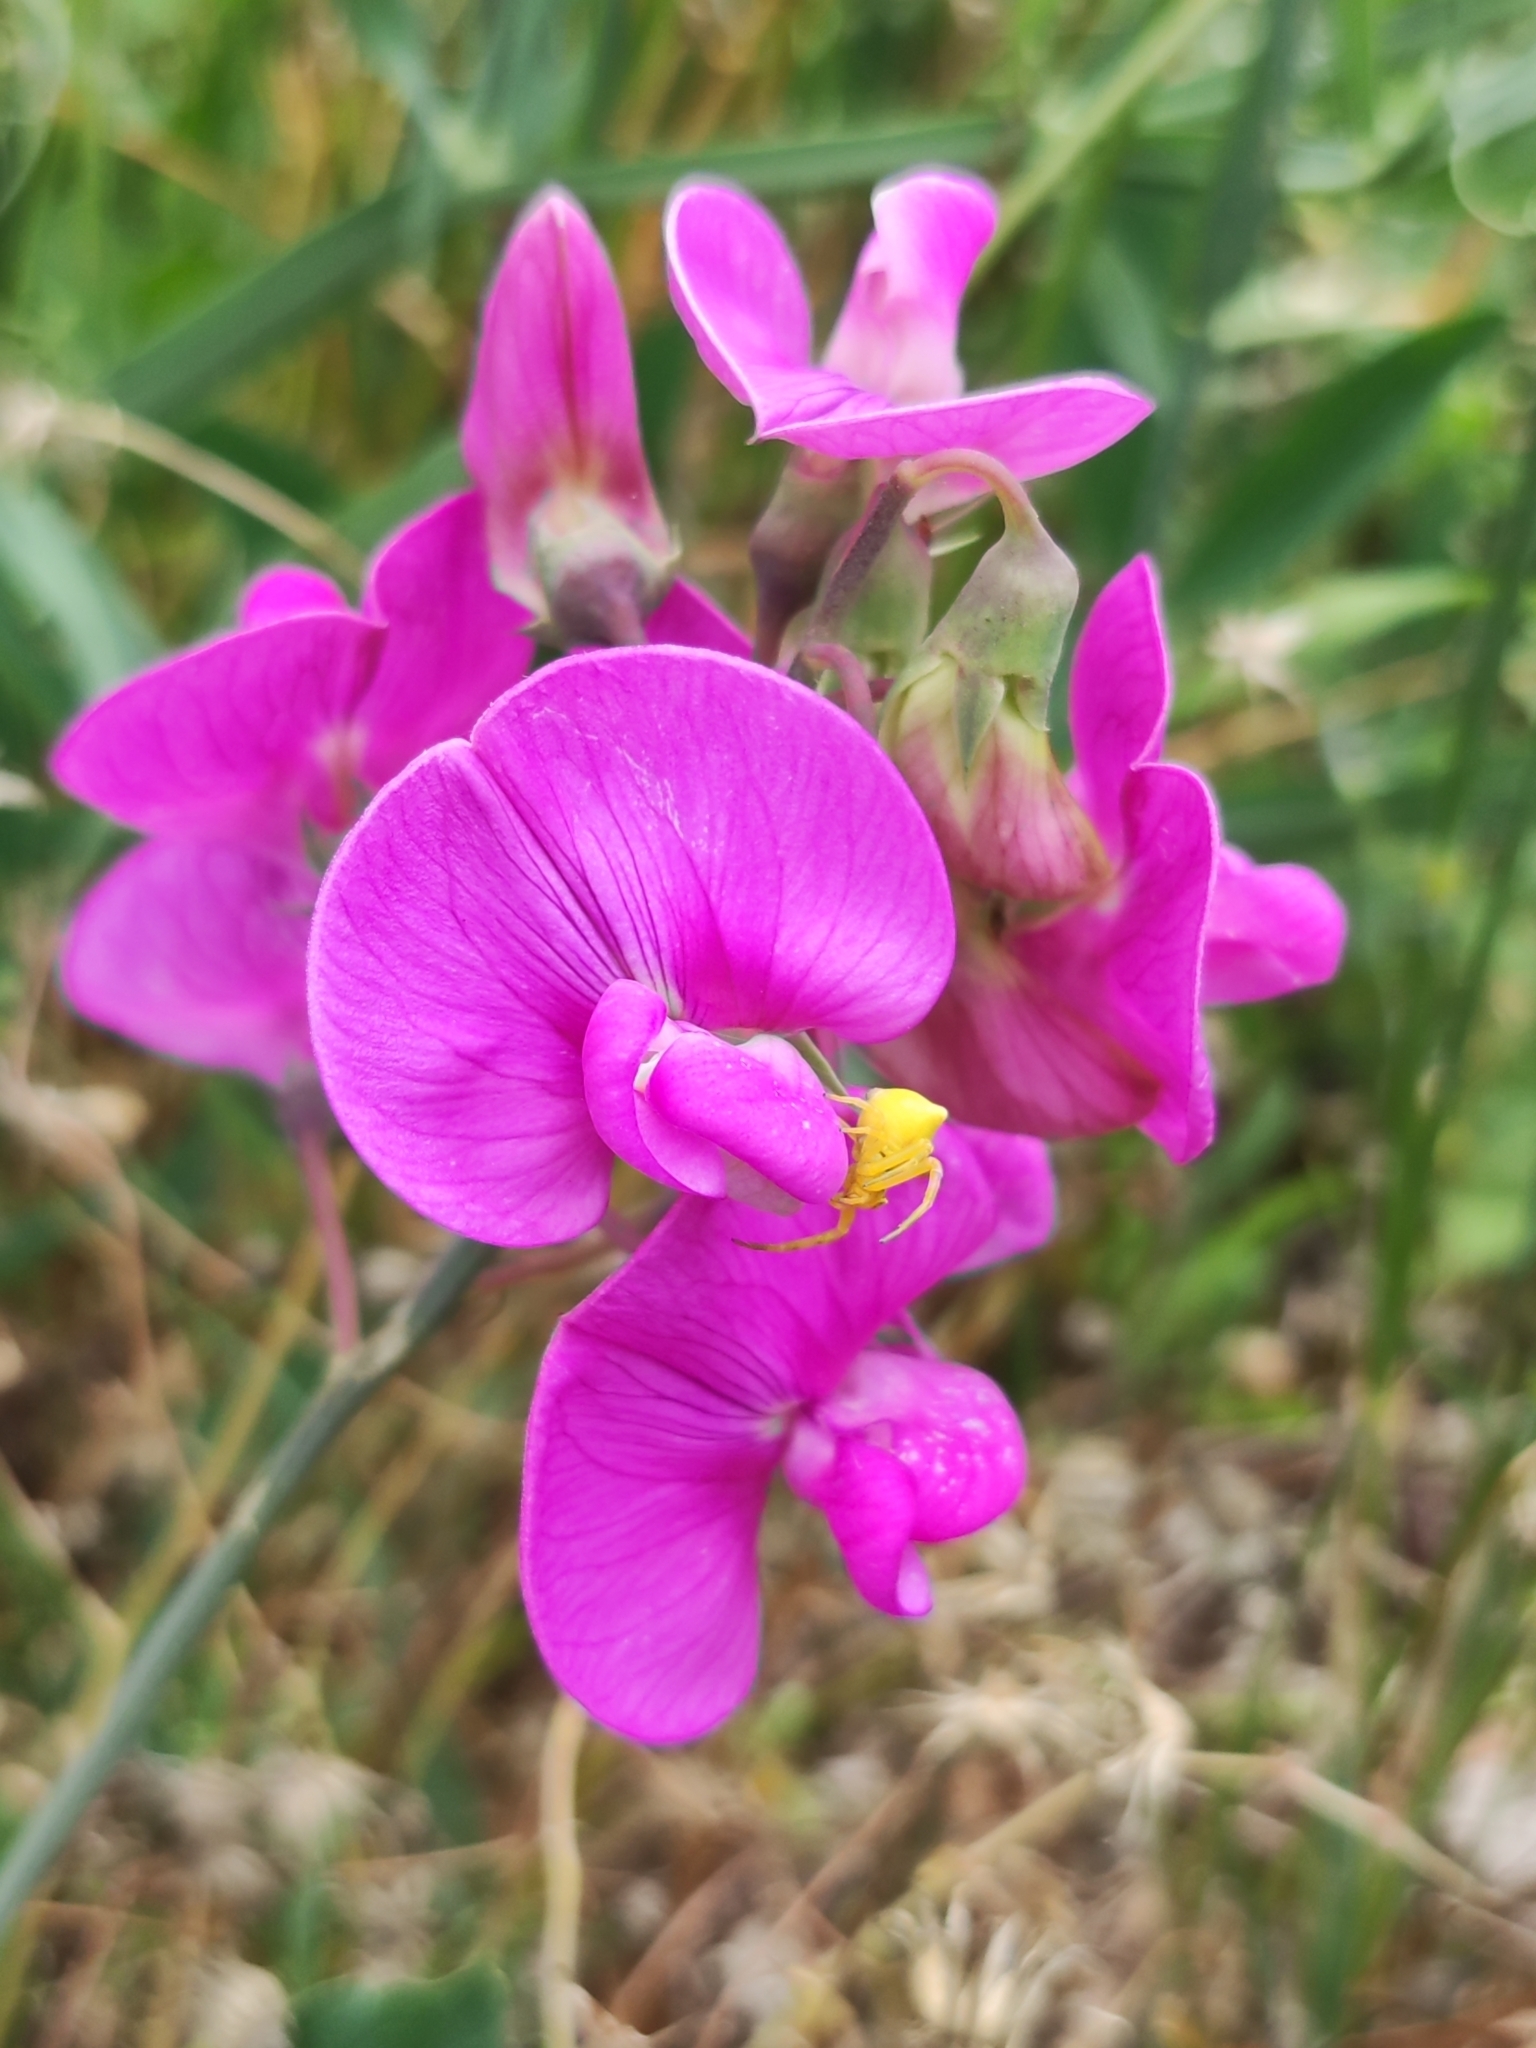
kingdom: Animalia
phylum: Arthropoda
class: Arachnida
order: Araneae
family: Thomisidae
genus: Thomisus
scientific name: Thomisus onustus
